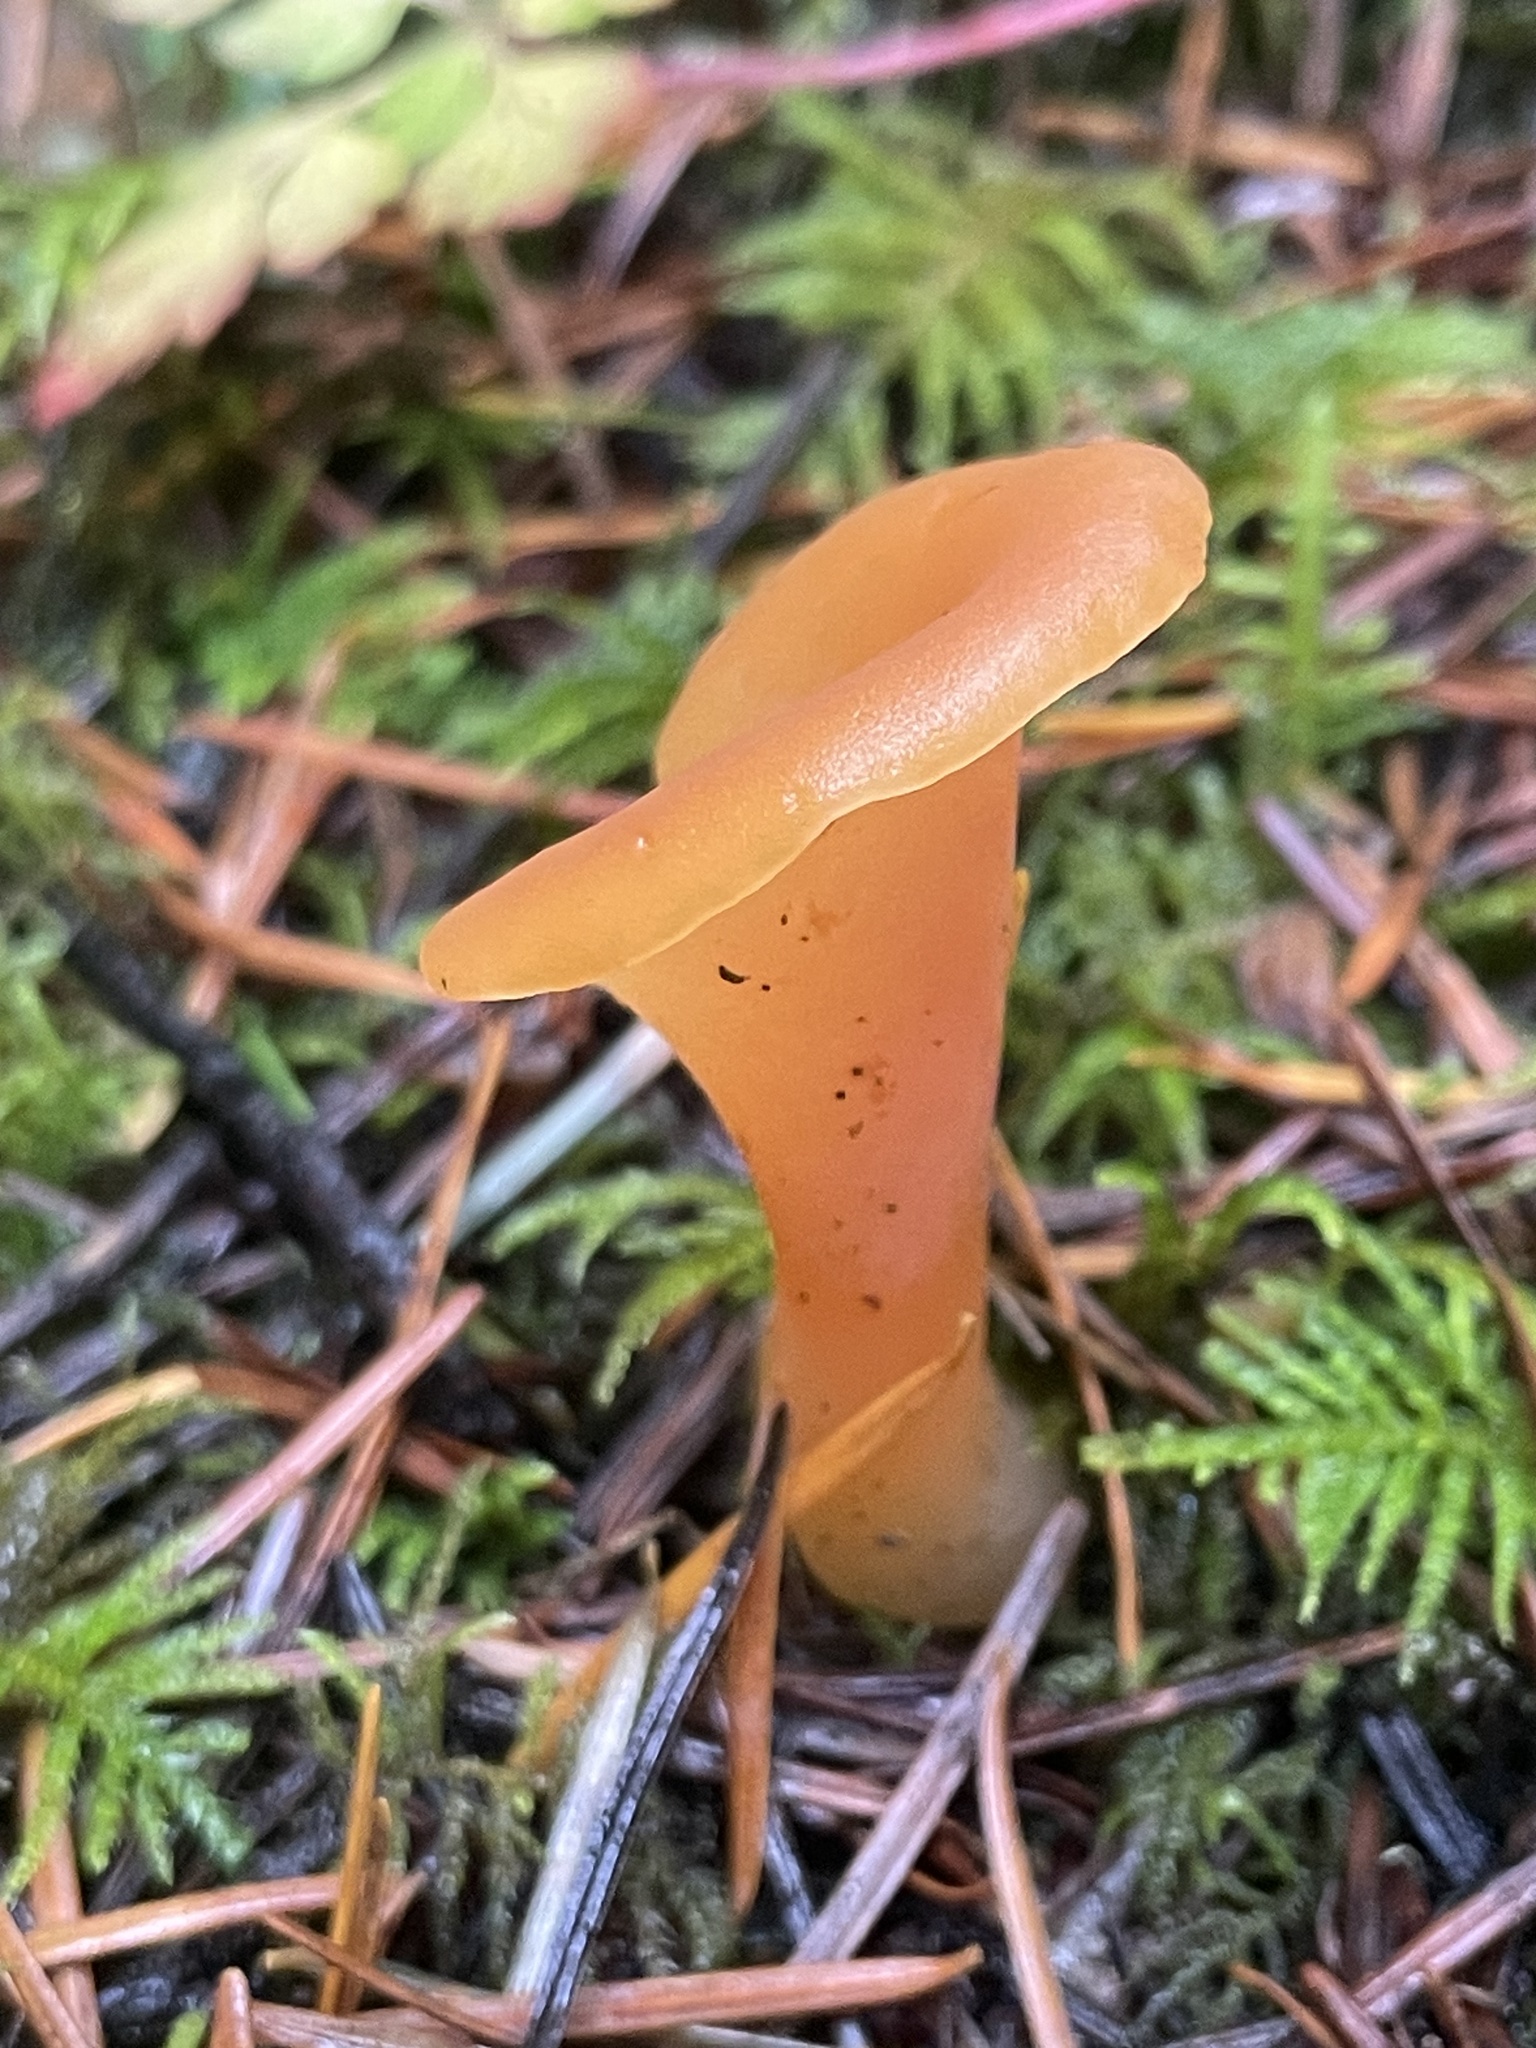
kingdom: Fungi
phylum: Basidiomycota
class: Agaricomycetes
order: Auriculariales
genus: Guepinia
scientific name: Guepinia helvelloides
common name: Salmon salad
